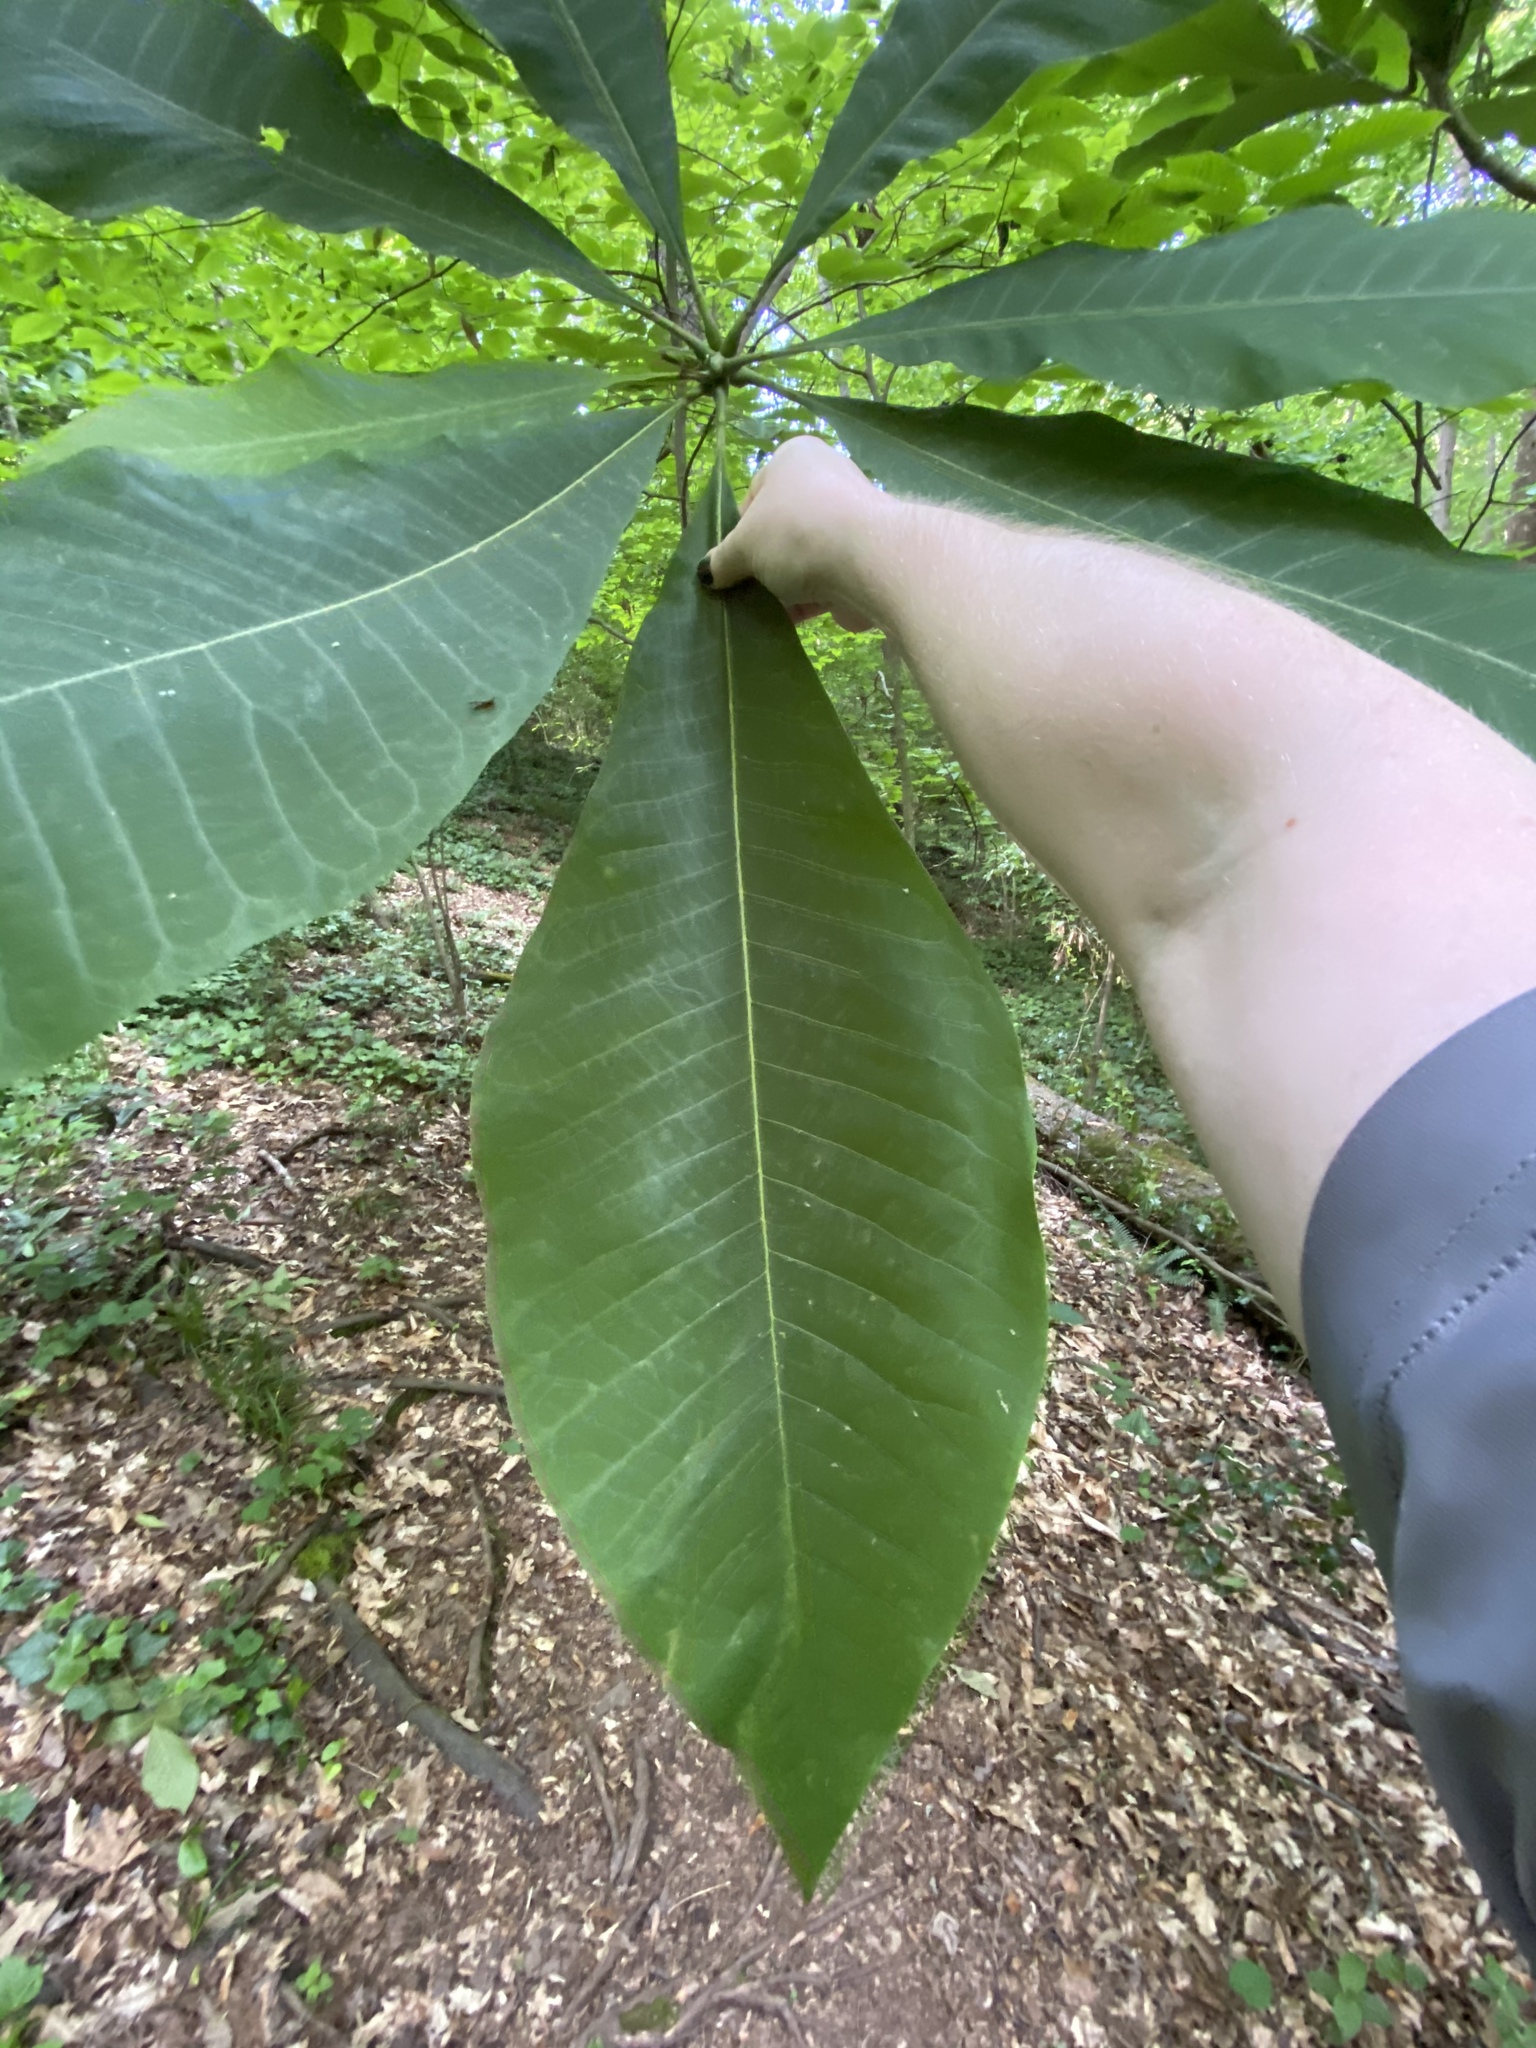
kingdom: Plantae
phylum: Tracheophyta
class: Magnoliopsida
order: Magnoliales
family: Magnoliaceae
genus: Magnolia
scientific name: Magnolia tripetala
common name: Umbrella magnolia
